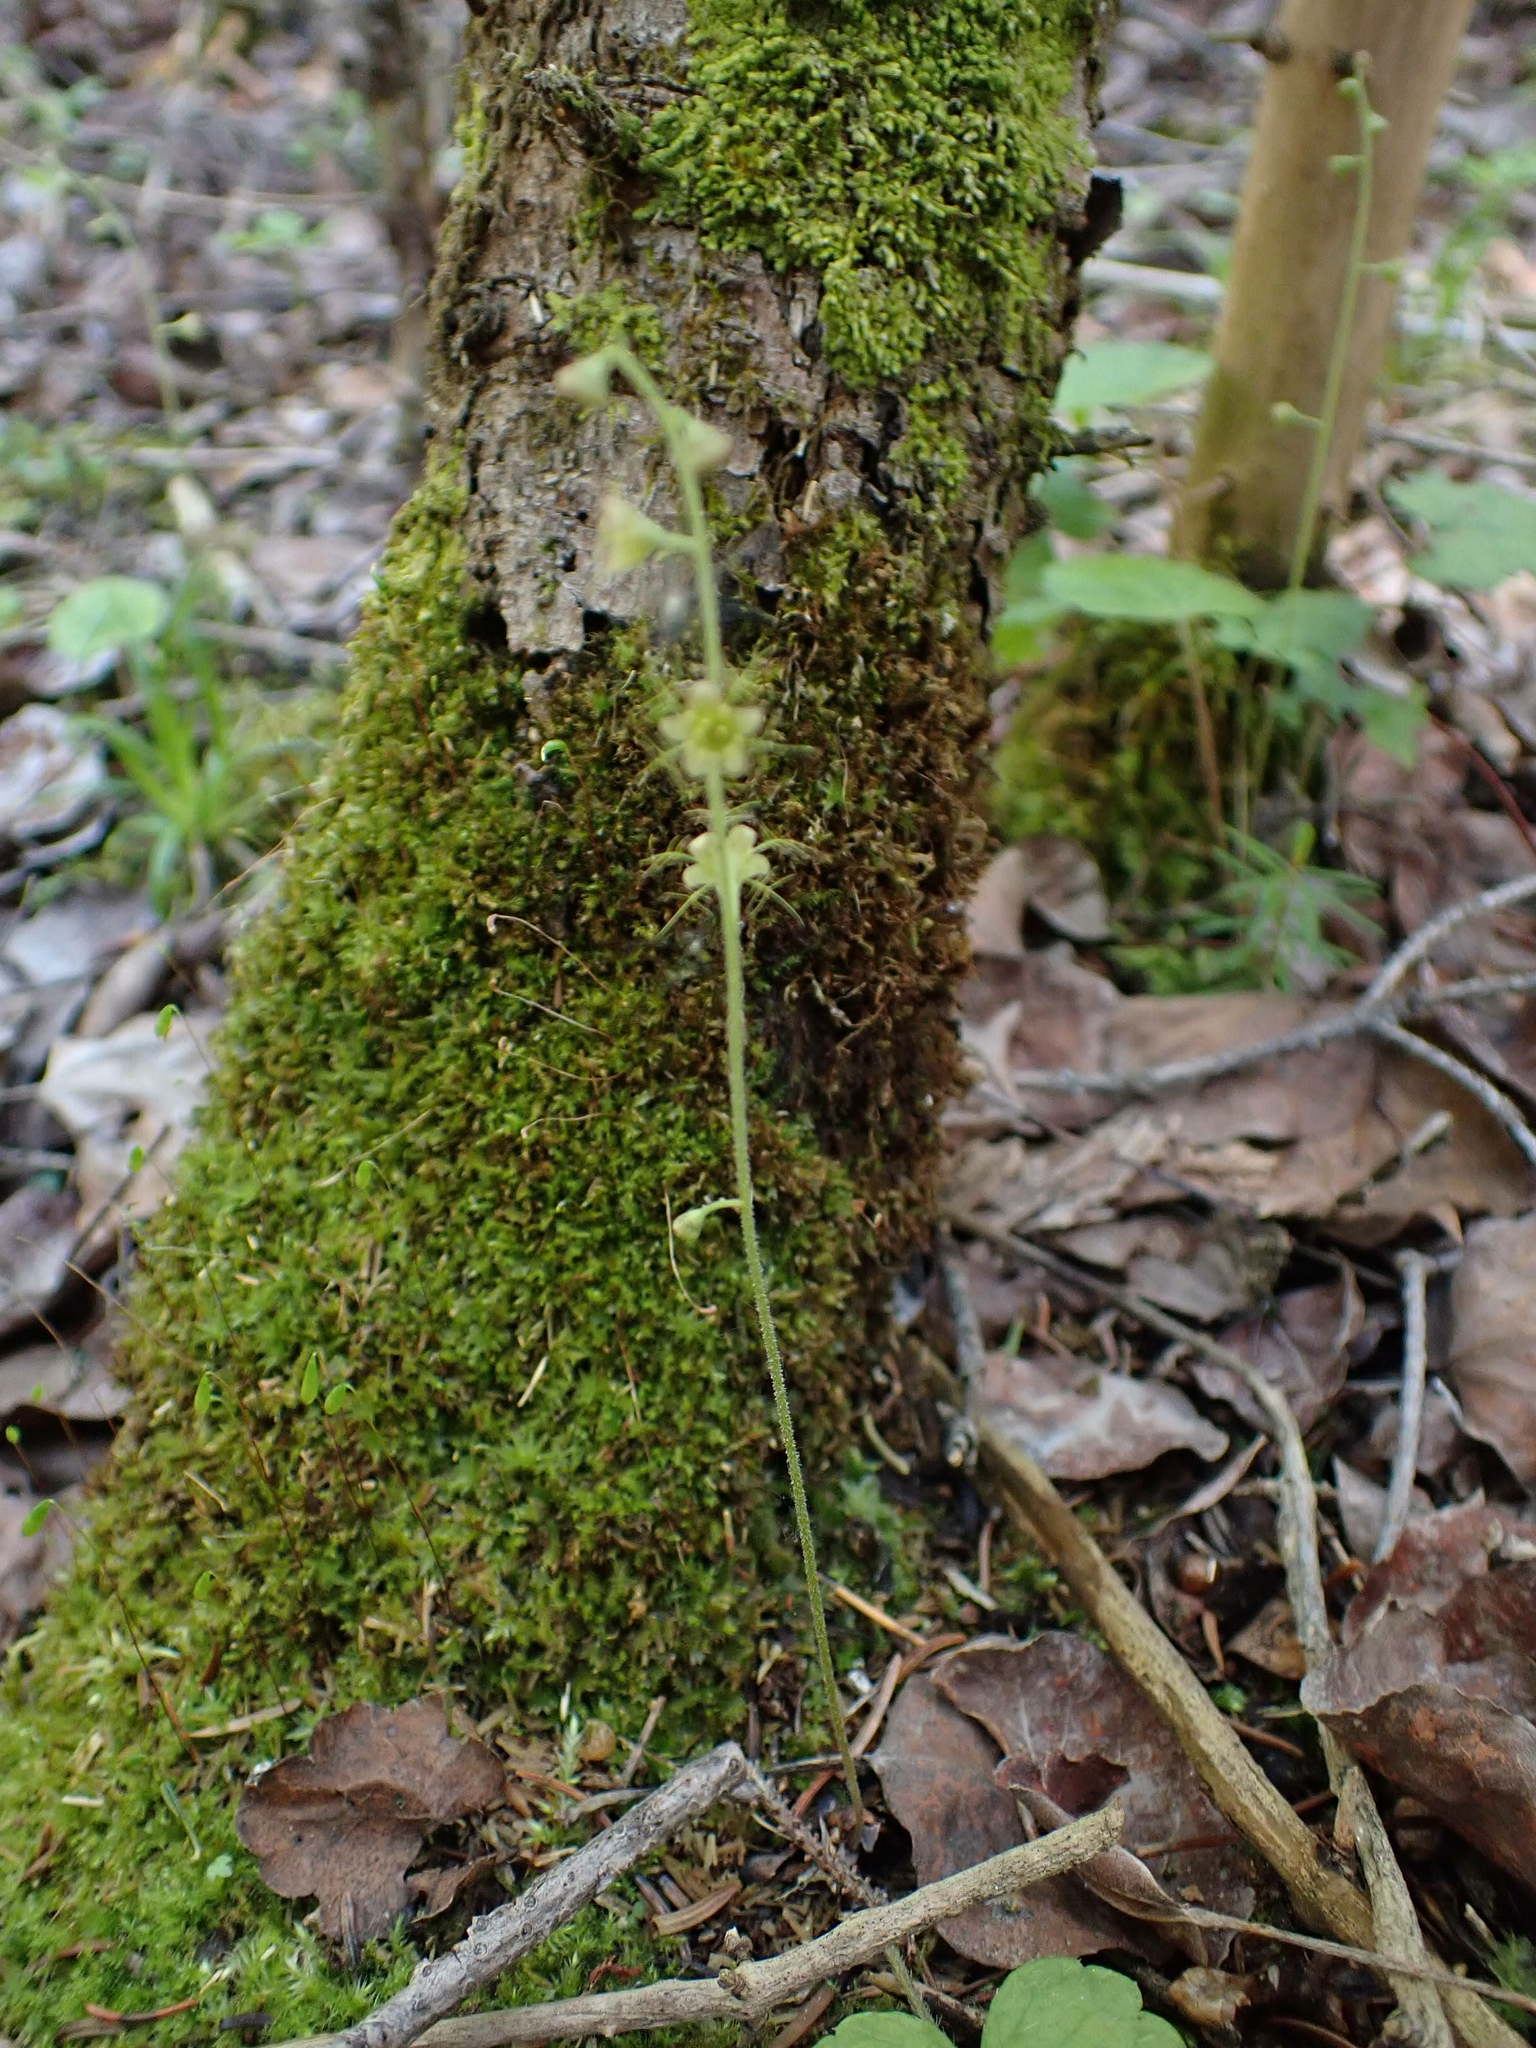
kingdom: Plantae
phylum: Tracheophyta
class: Magnoliopsida
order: Saxifragales
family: Saxifragaceae
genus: Mitella
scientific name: Mitella nuda
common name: Bare-stemmed bishop's-cap
